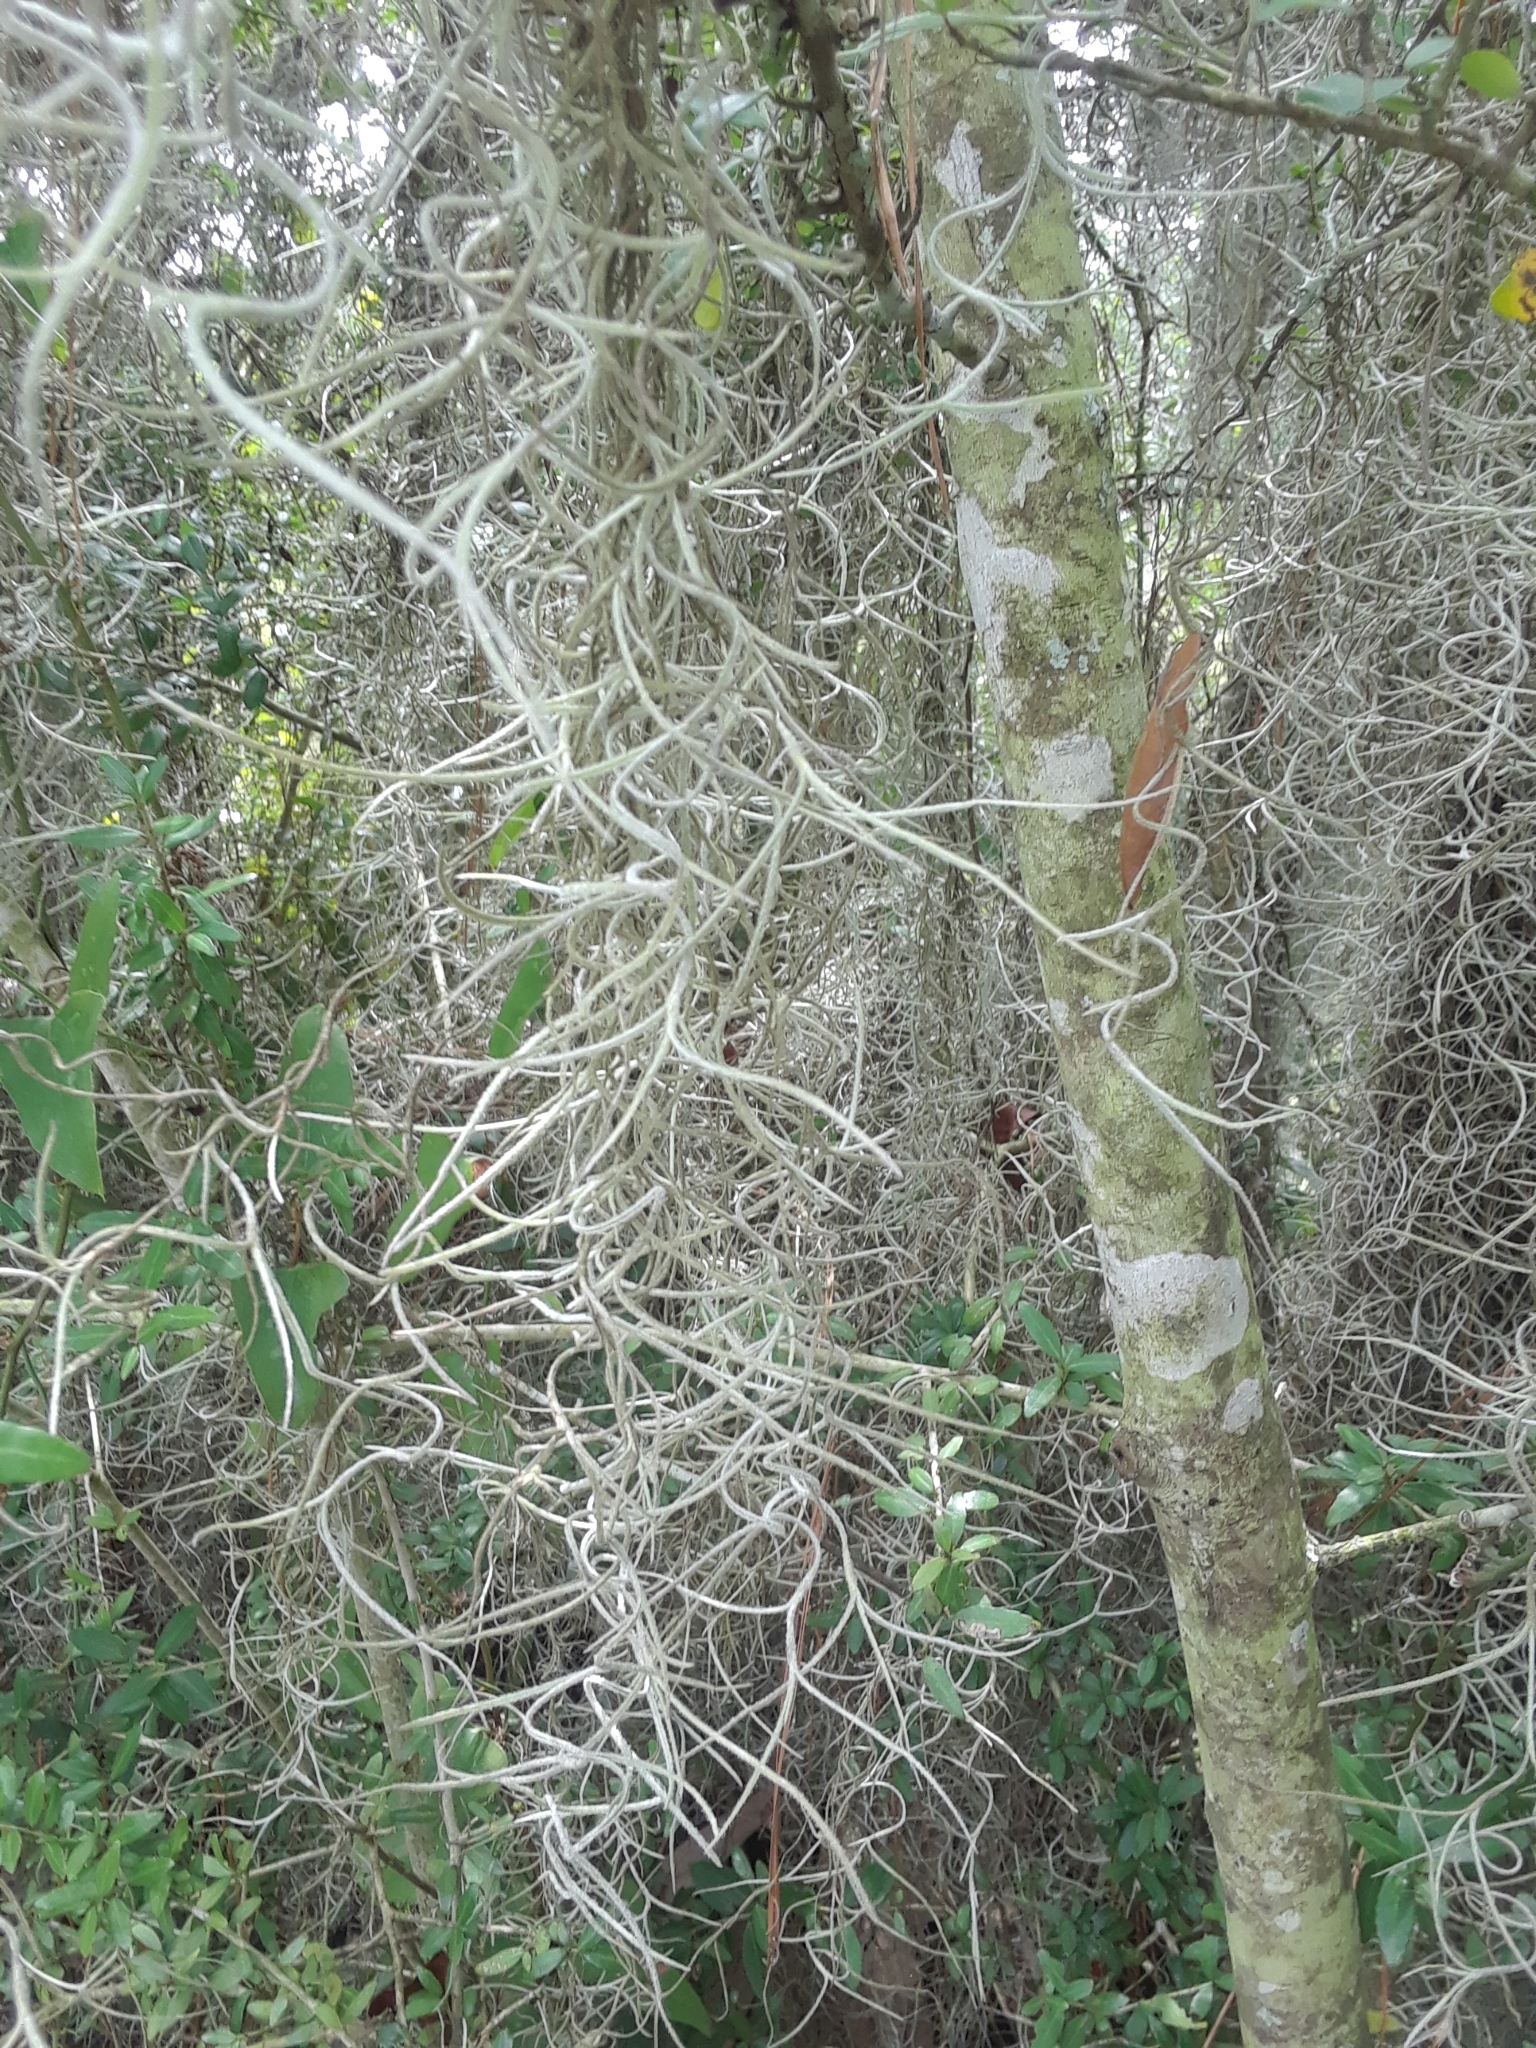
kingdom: Plantae
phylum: Tracheophyta
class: Liliopsida
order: Poales
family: Bromeliaceae
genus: Tillandsia
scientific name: Tillandsia usneoides
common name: Spanish moss
